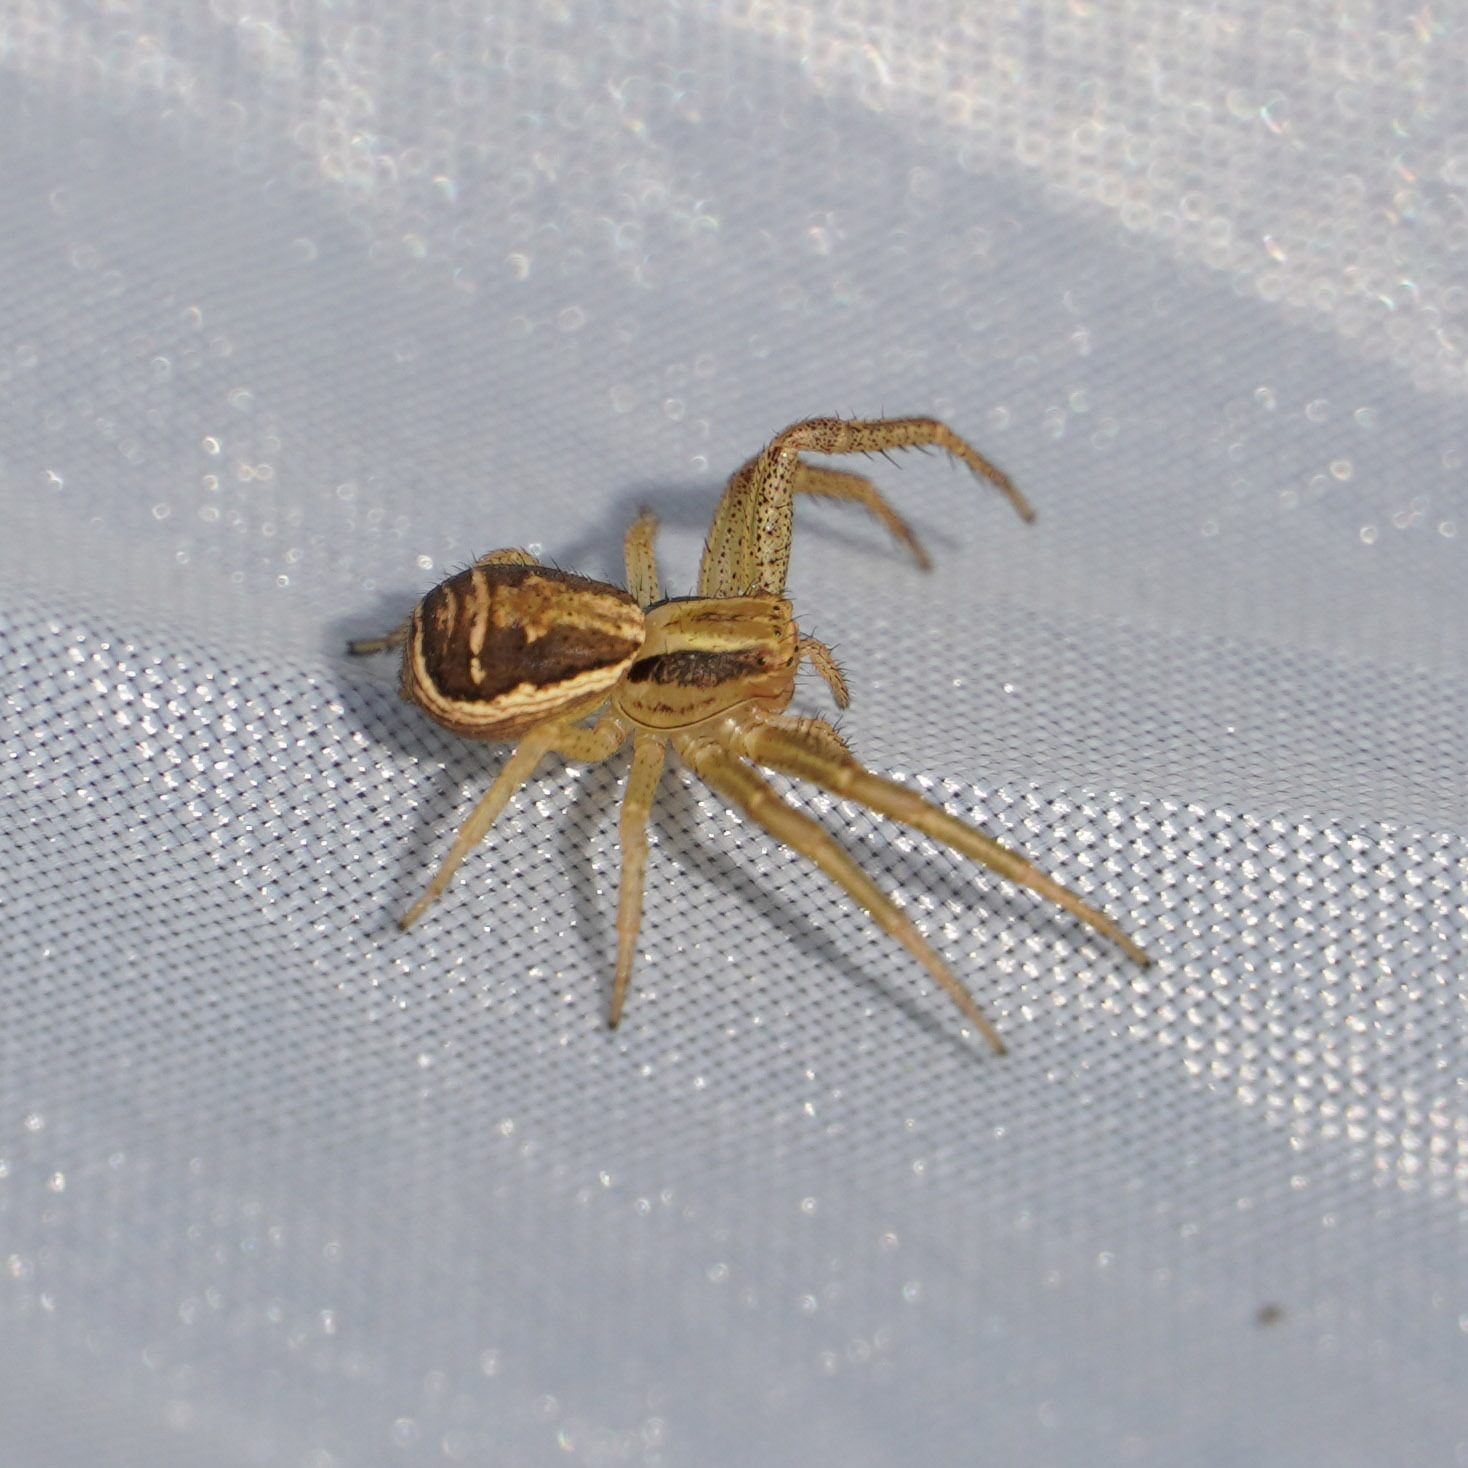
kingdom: Animalia
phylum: Arthropoda
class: Arachnida
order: Araneae
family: Thomisidae
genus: Xysticus
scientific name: Xysticus ulmi
